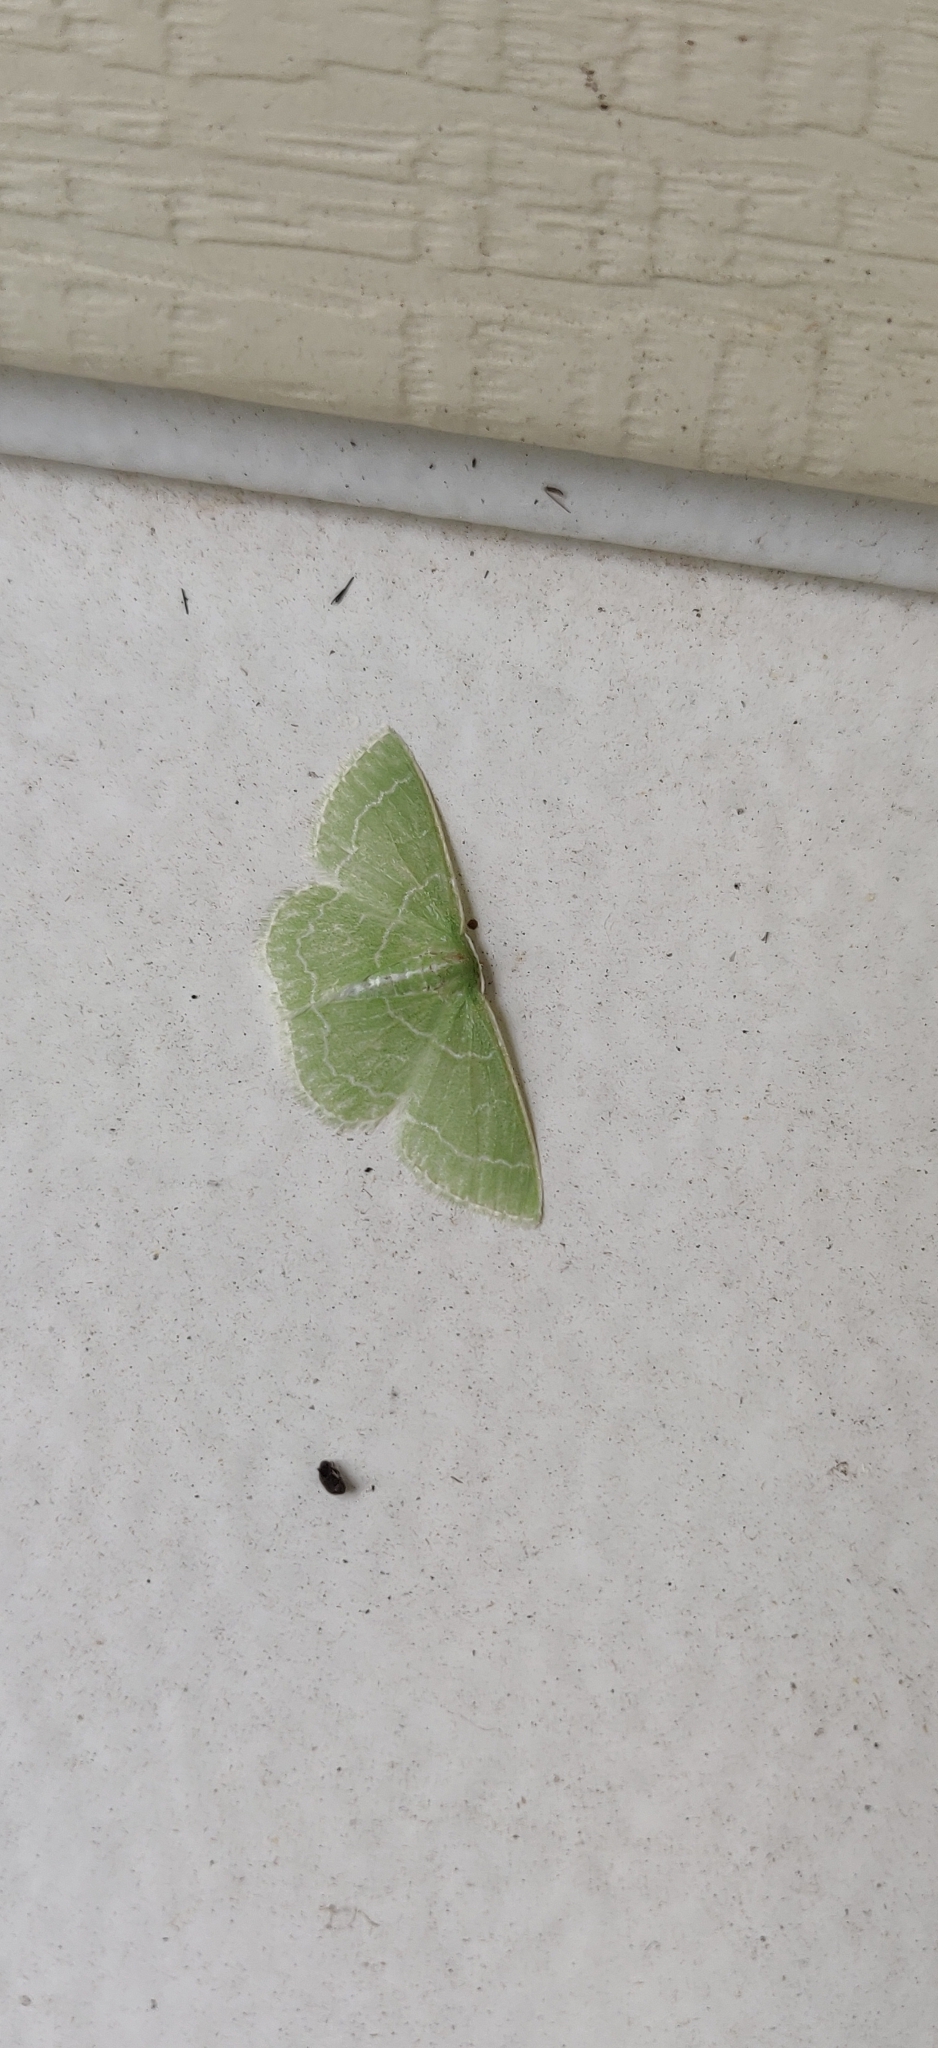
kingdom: Animalia
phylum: Arthropoda
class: Insecta
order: Lepidoptera
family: Geometridae
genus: Synchlora
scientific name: Synchlora aerata
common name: Wavy-lined emerald
